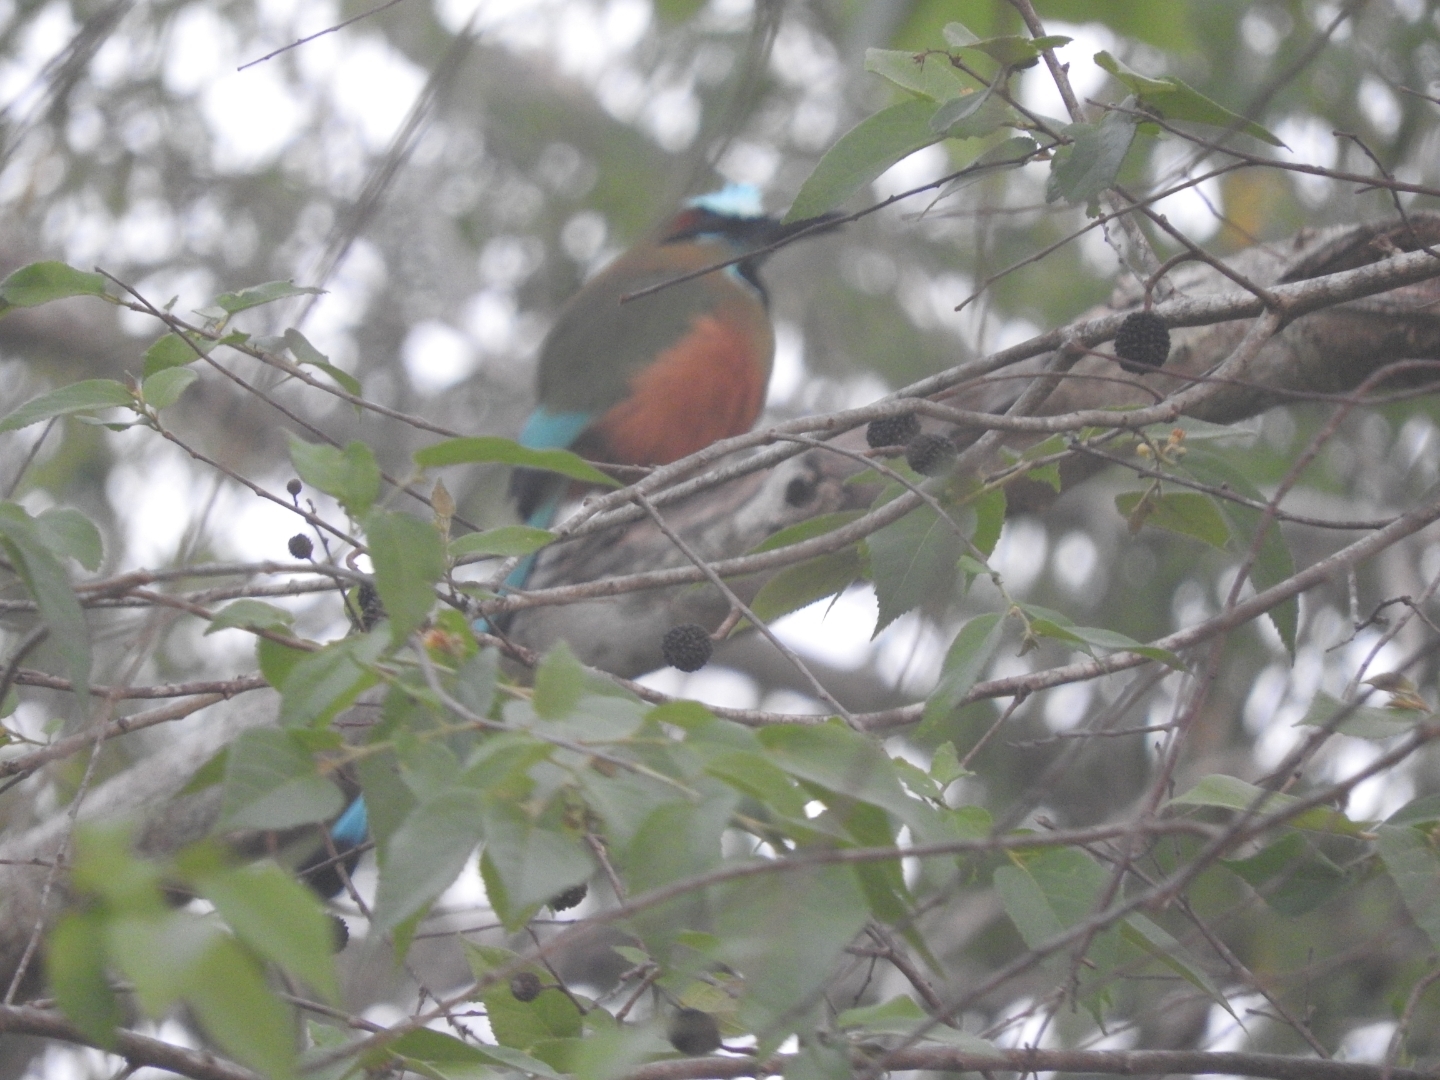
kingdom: Animalia
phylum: Chordata
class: Aves
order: Coraciiformes
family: Momotidae
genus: Eumomota
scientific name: Eumomota superciliosa
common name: Turquoise-browed motmot
